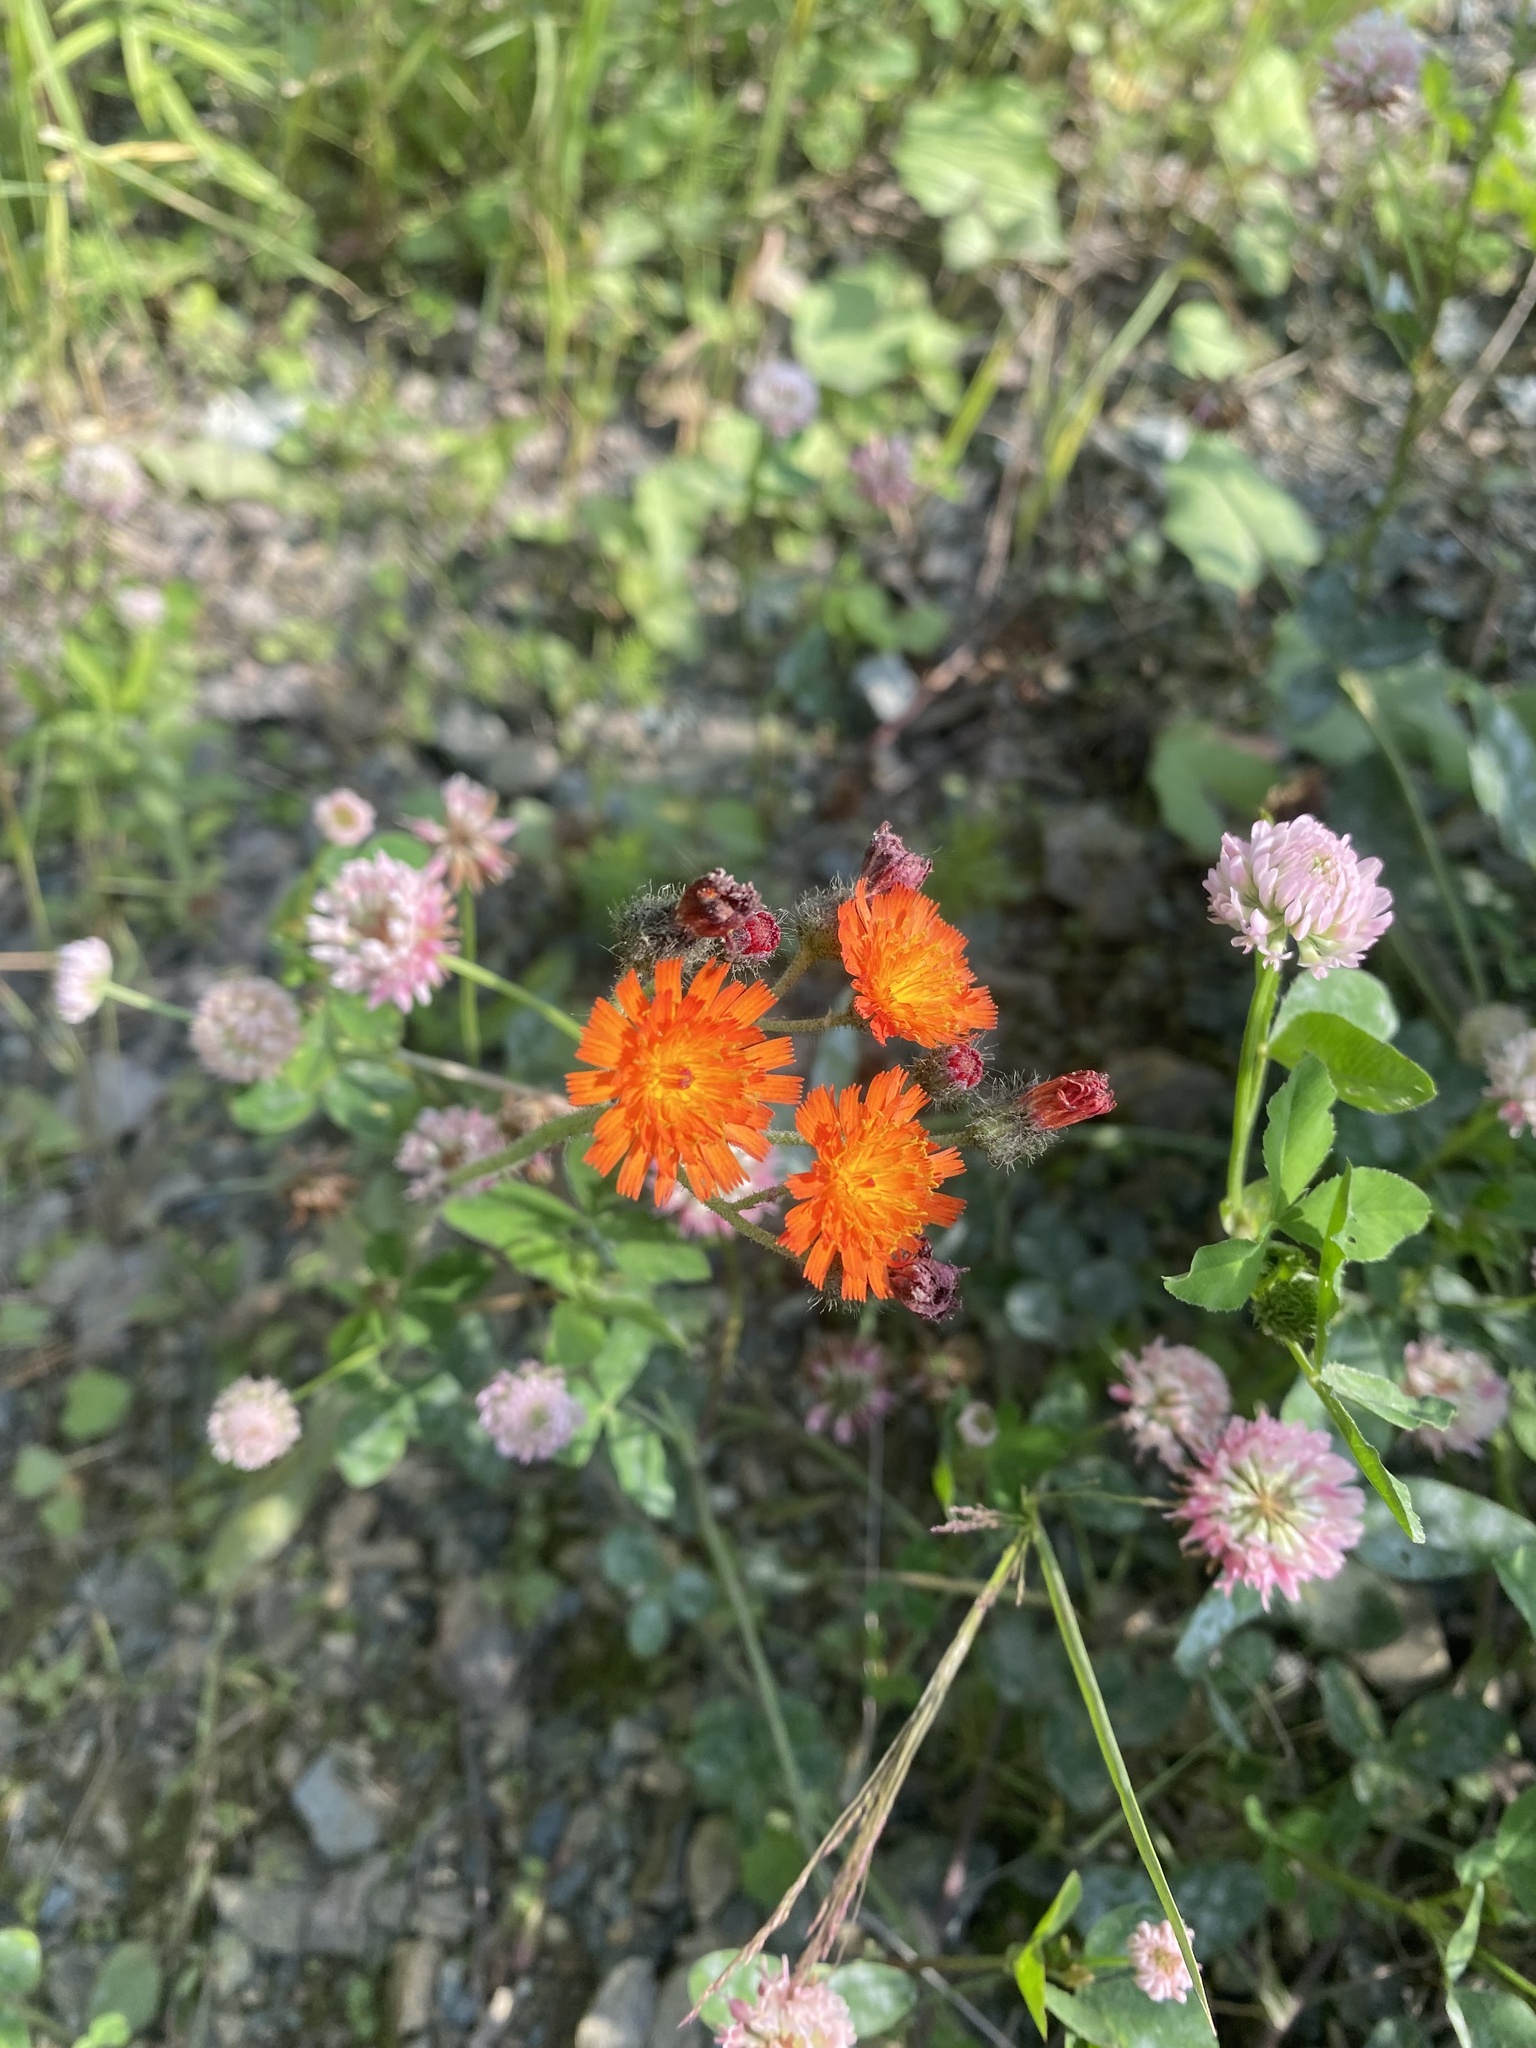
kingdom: Plantae
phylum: Tracheophyta
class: Magnoliopsida
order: Asterales
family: Asteraceae
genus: Pilosella
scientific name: Pilosella aurantiaca
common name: Fox-and-cubs
